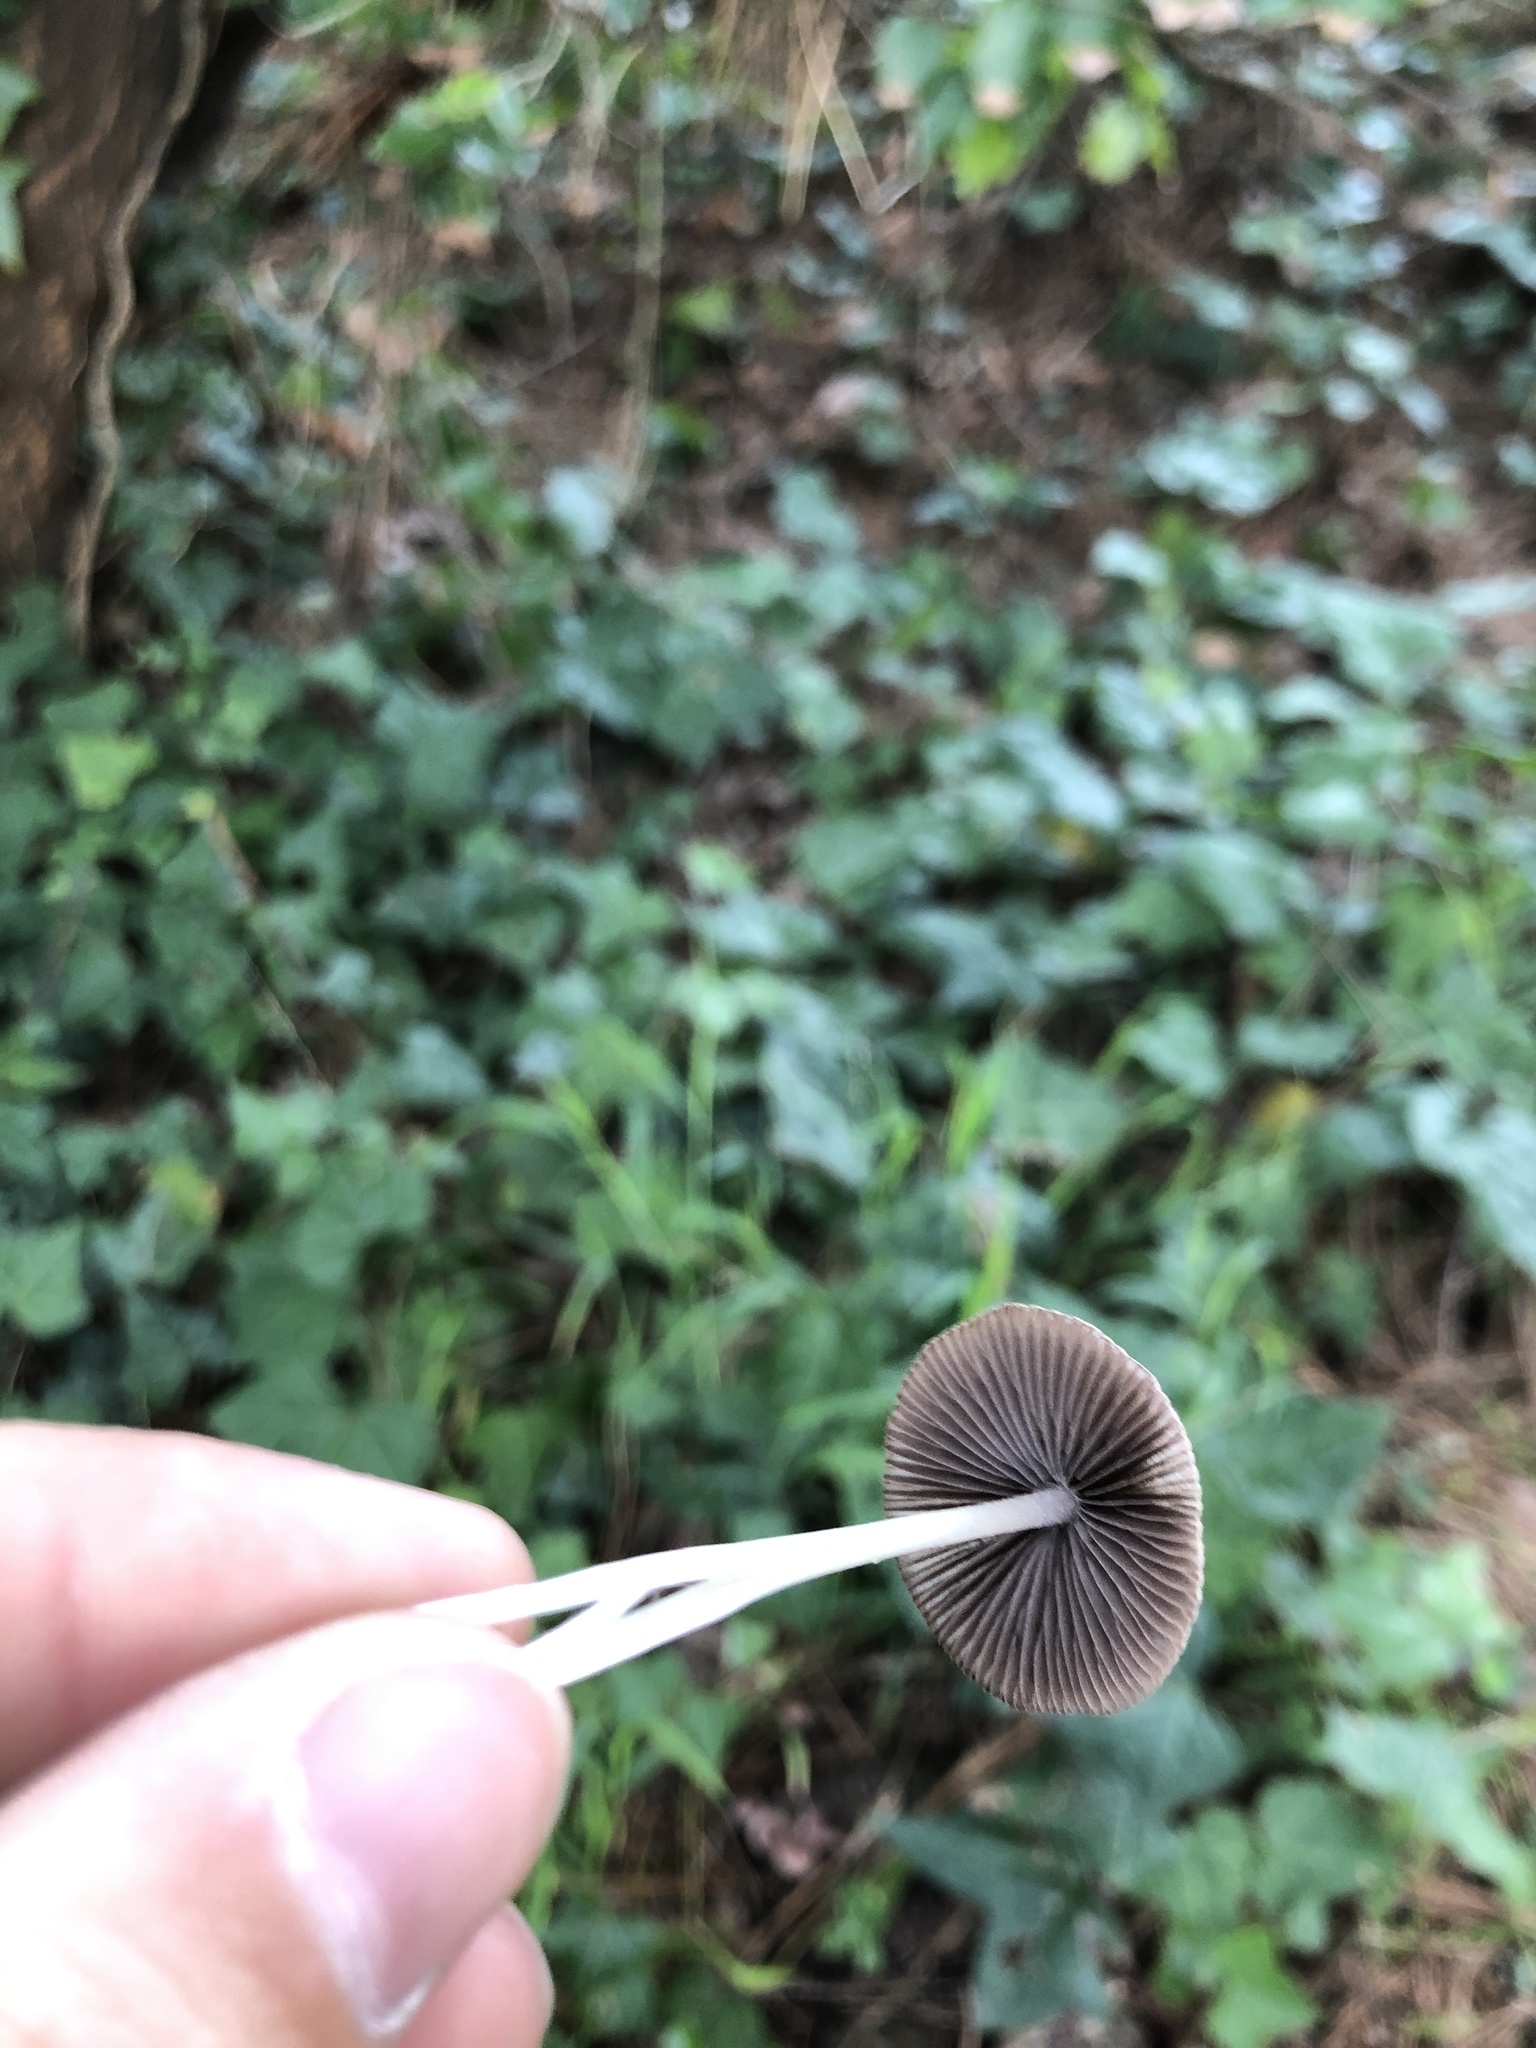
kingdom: Fungi
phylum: Basidiomycota
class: Agaricomycetes
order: Agaricales
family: Psathyrellaceae
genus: Tulosesus
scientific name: Tulosesus impatiens
